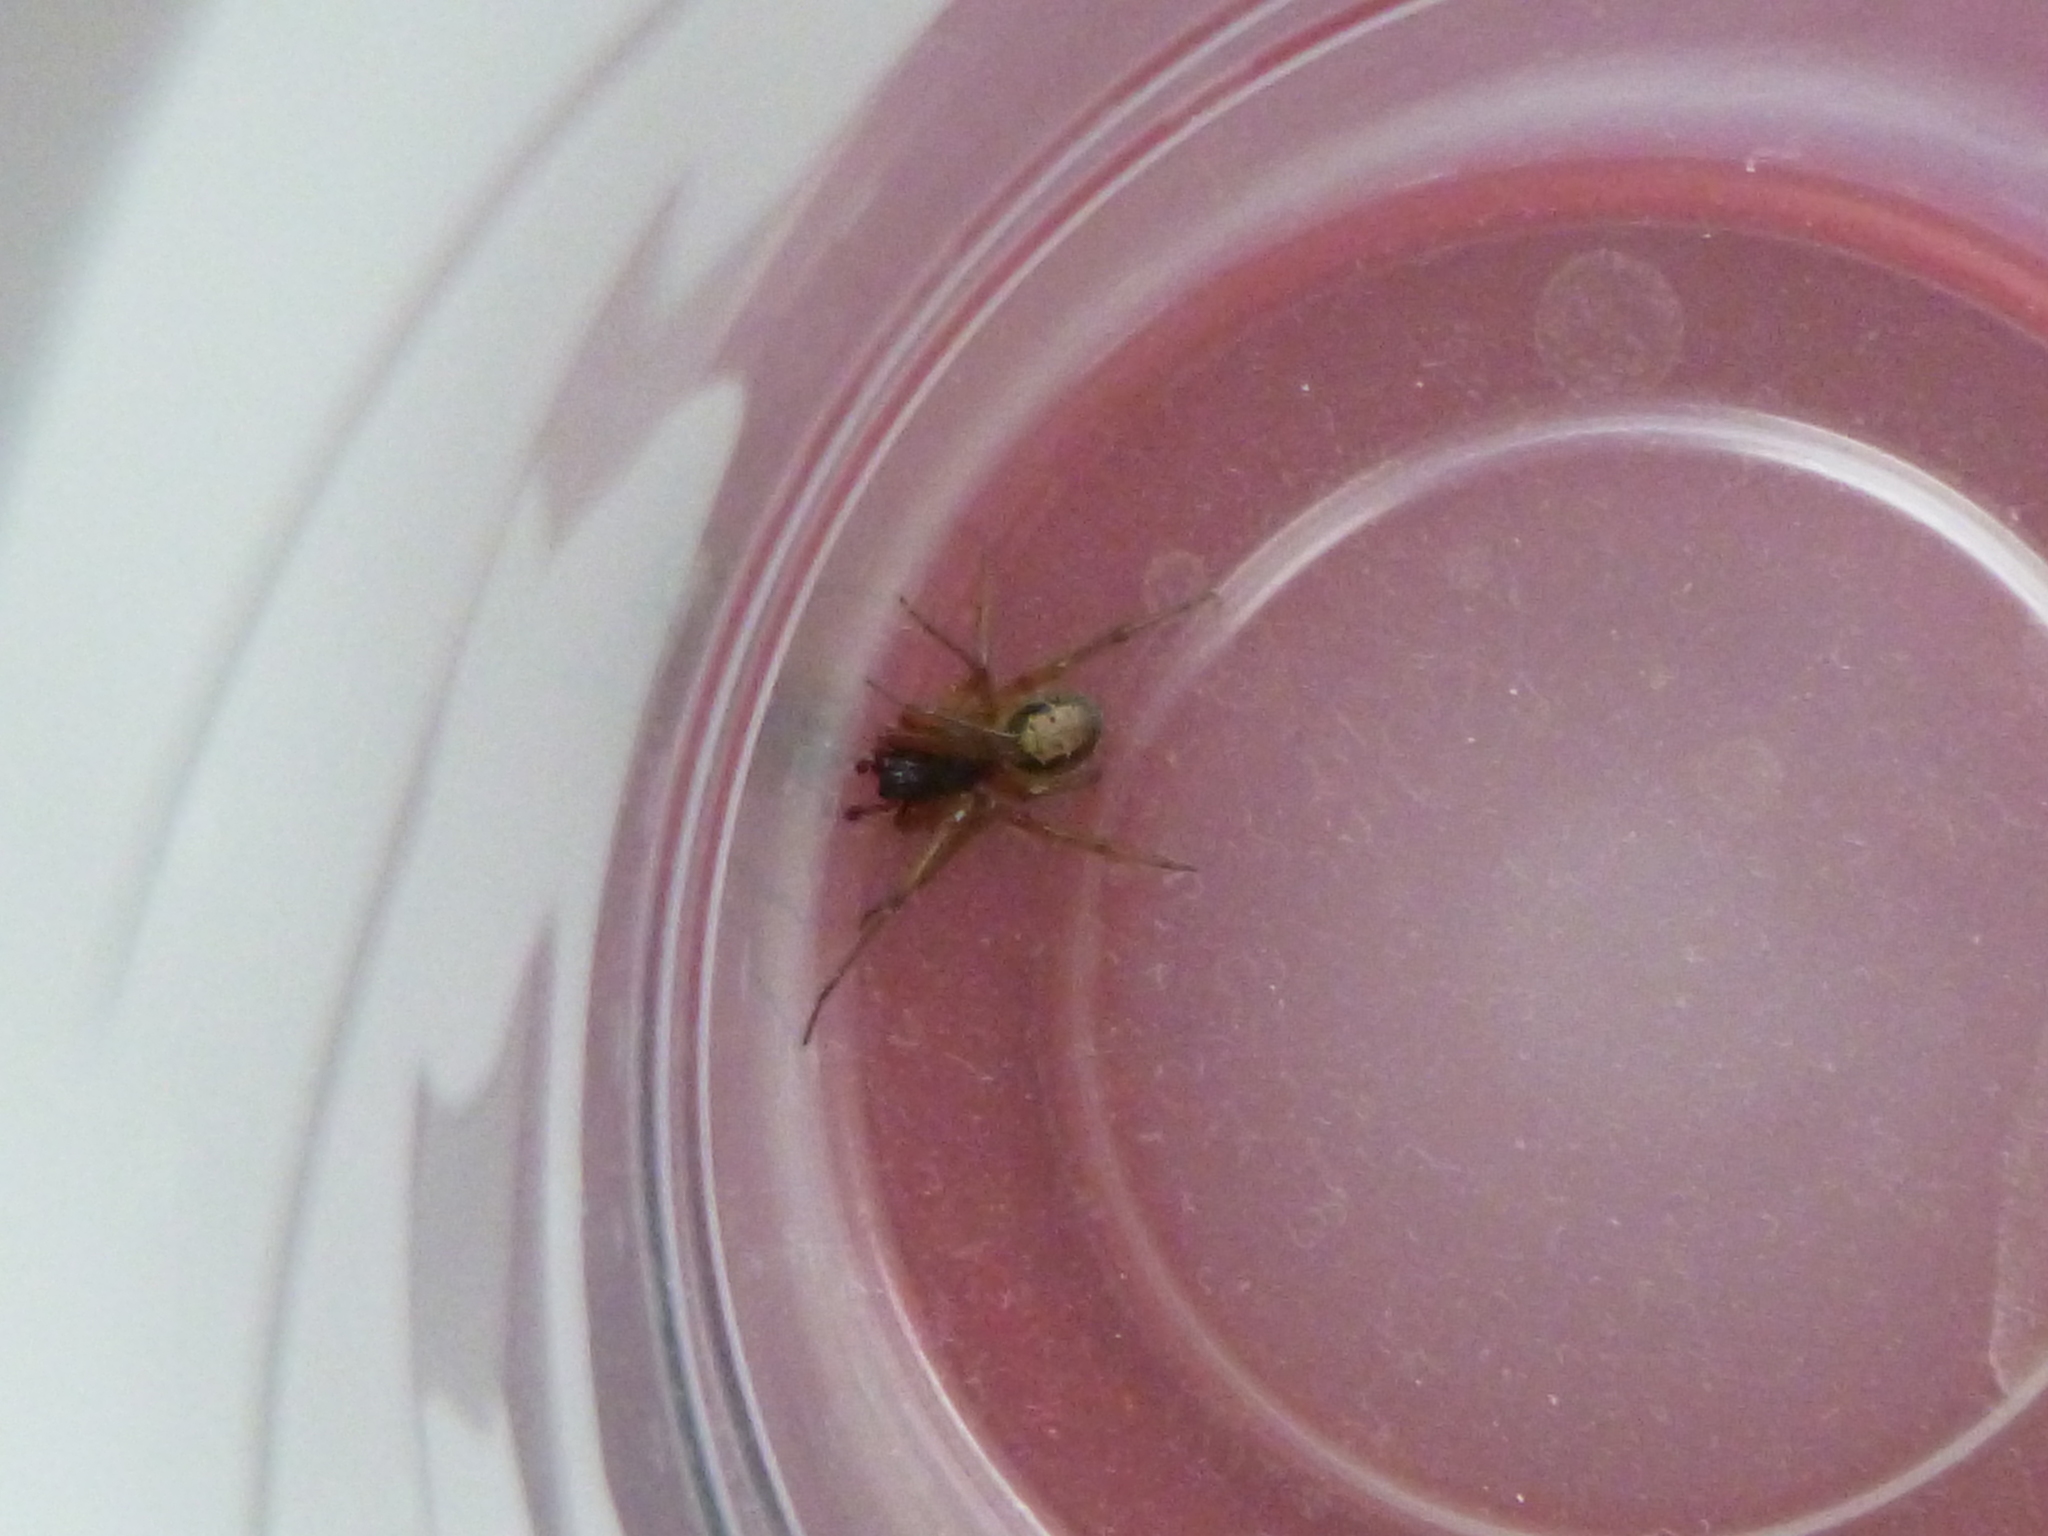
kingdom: Animalia
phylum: Arthropoda
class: Arachnida
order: Araneae
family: Theridiidae
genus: Steatoda
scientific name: Steatoda nobilis
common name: Cobweb weaver
